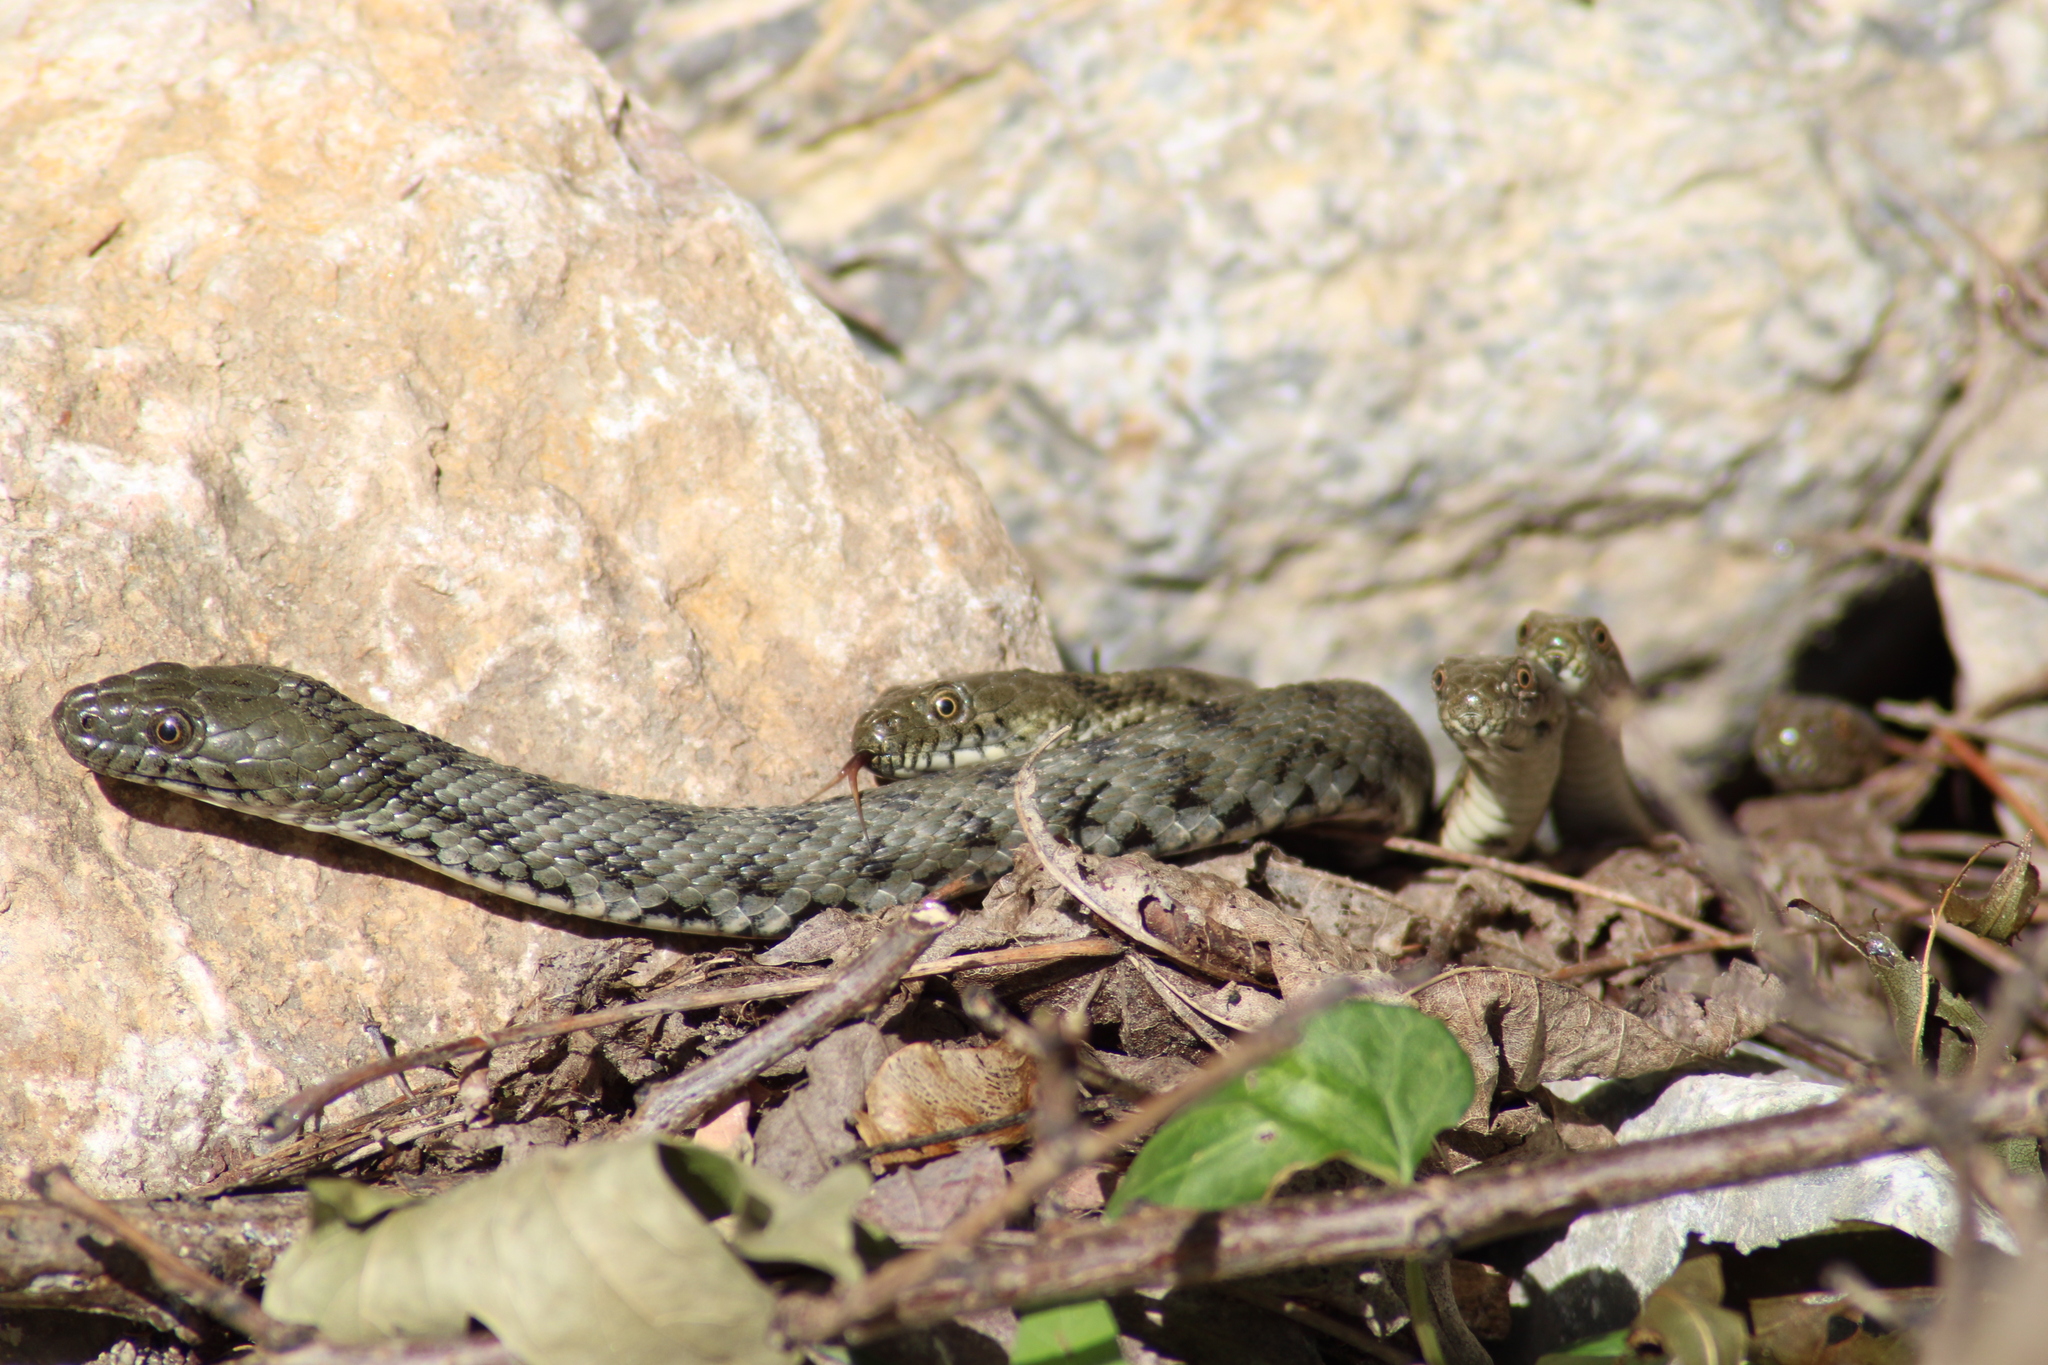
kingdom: Animalia
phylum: Chordata
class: Squamata
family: Colubridae
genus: Natrix
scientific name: Natrix tessellata
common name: Dice snake
